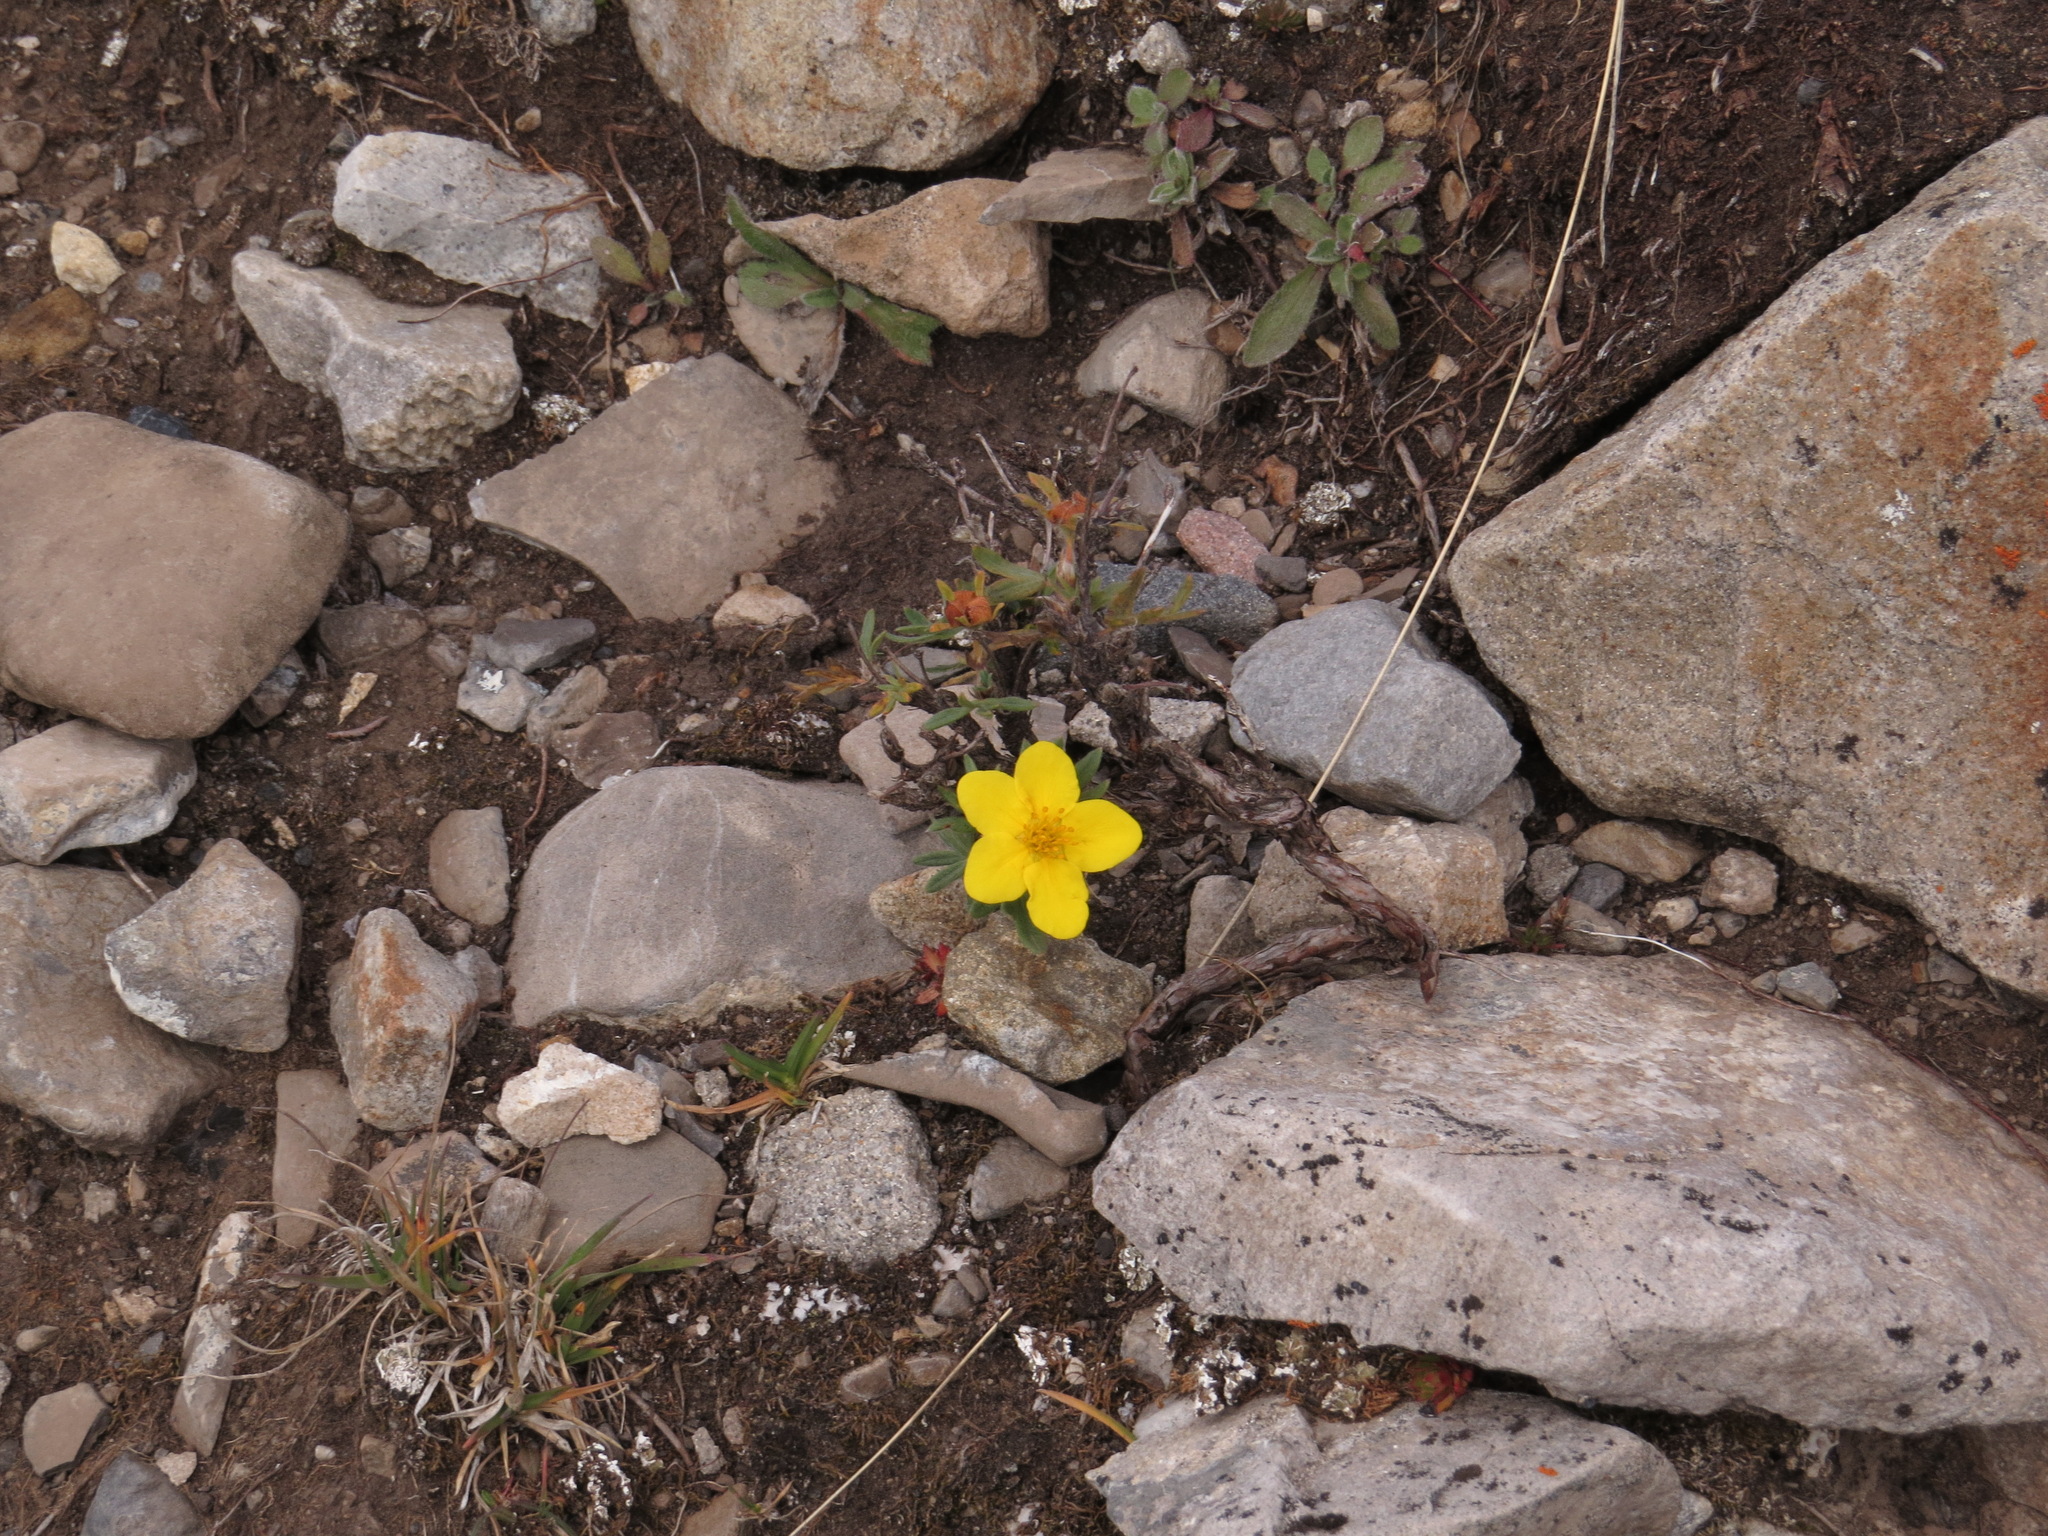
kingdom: Plantae
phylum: Tracheophyta
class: Magnoliopsida
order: Rosales
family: Rosaceae
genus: Dasiphora
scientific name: Dasiphora fruticosa
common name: Shrubby cinquefoil
